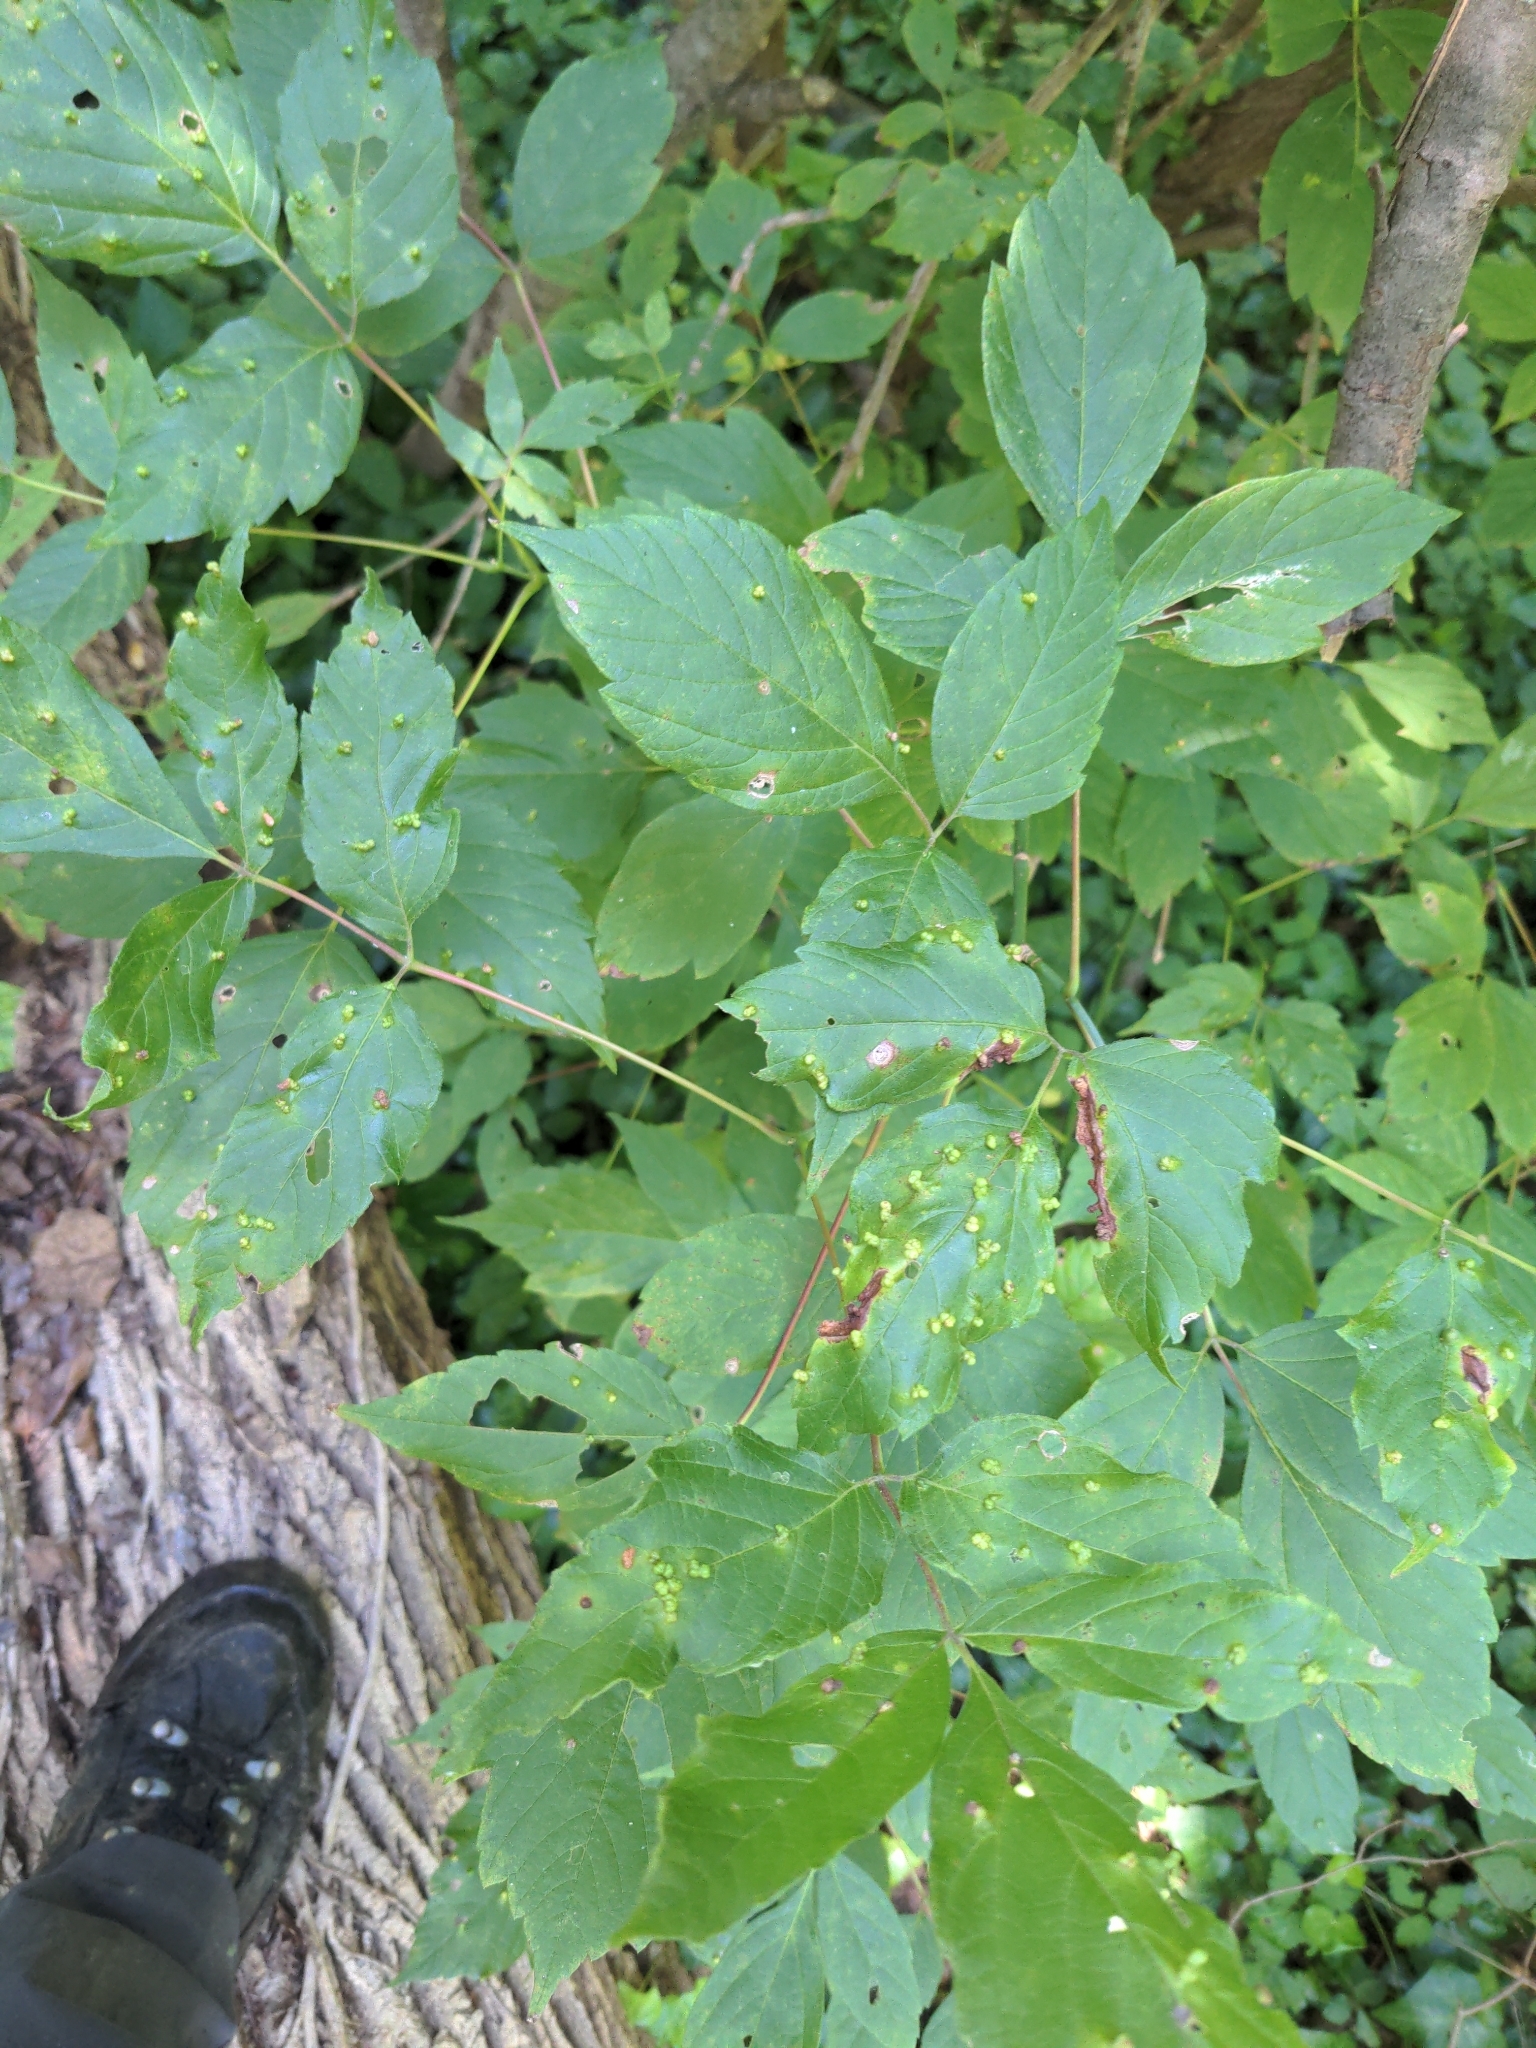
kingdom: Plantae
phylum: Tracheophyta
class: Magnoliopsida
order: Sapindales
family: Sapindaceae
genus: Acer
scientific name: Acer negundo
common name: Ashleaf maple
